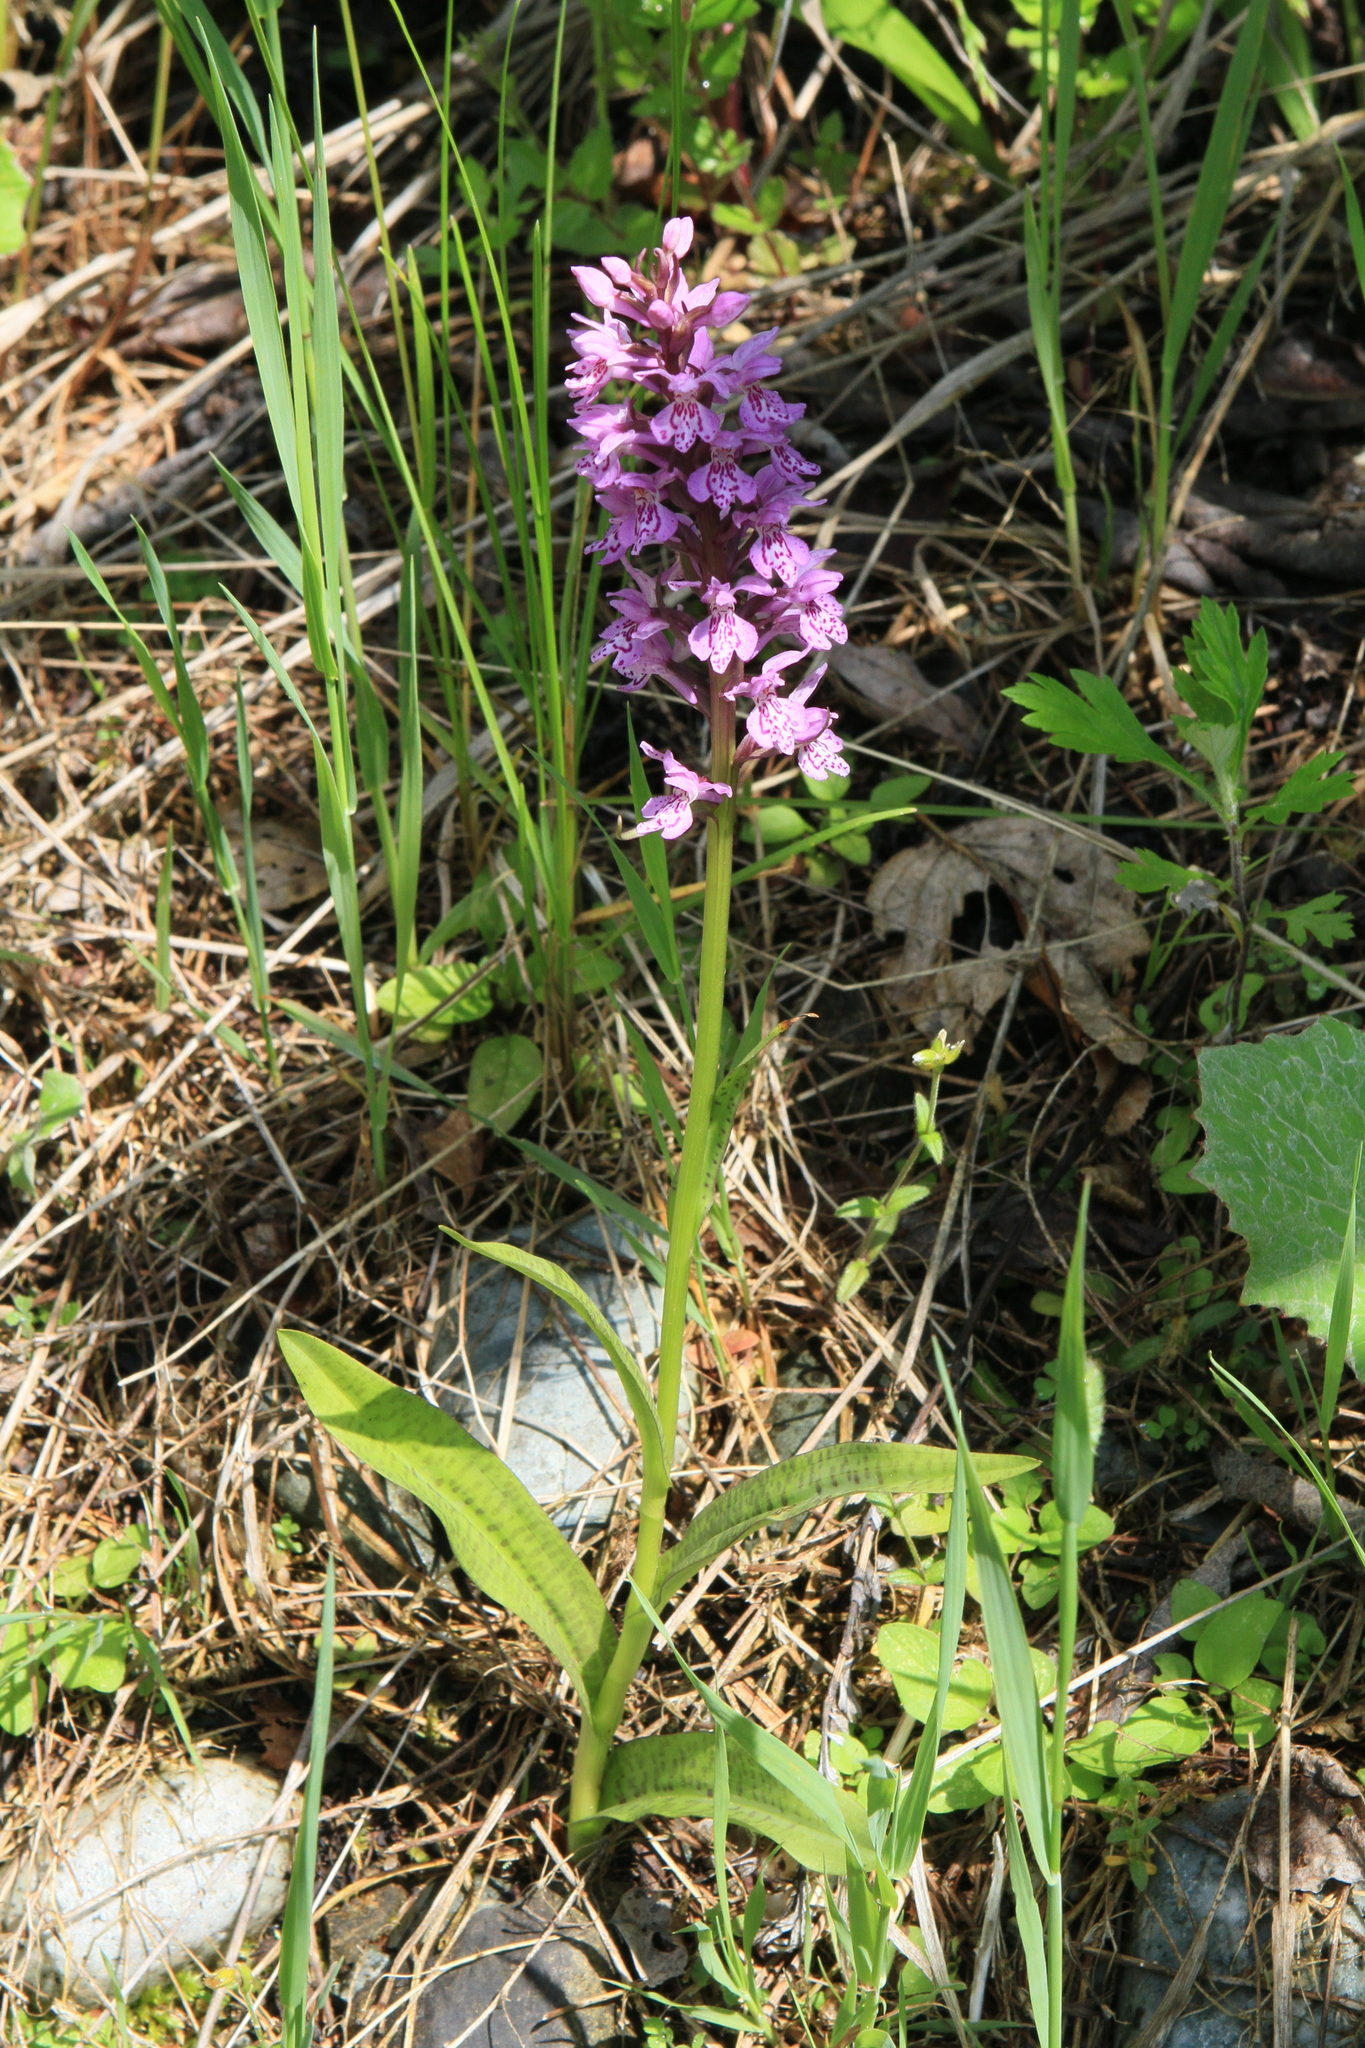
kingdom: Plantae
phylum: Tracheophyta
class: Liliopsida
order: Asparagales
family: Orchidaceae
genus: Dactylorhiza
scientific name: Dactylorhiza sibirica
